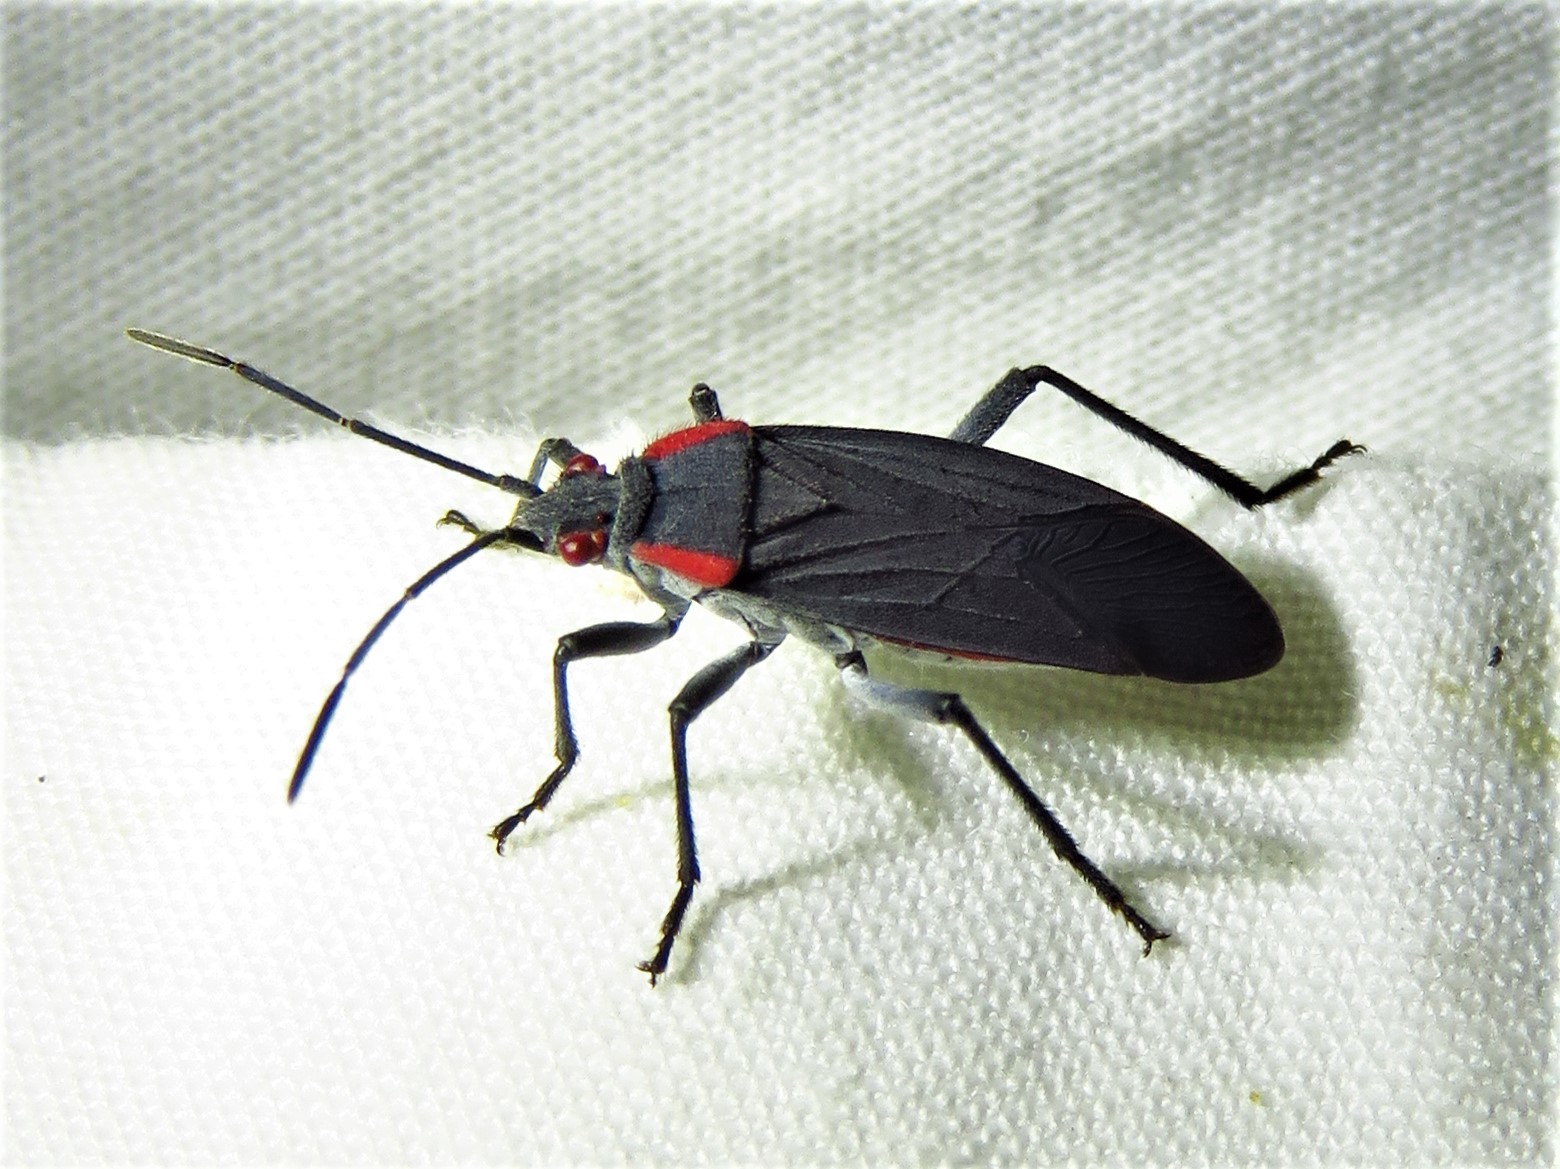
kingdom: Animalia
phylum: Arthropoda
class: Insecta
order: Hemiptera
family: Rhopalidae
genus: Jadera
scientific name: Jadera haematoloma
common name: Red-shouldered bug
